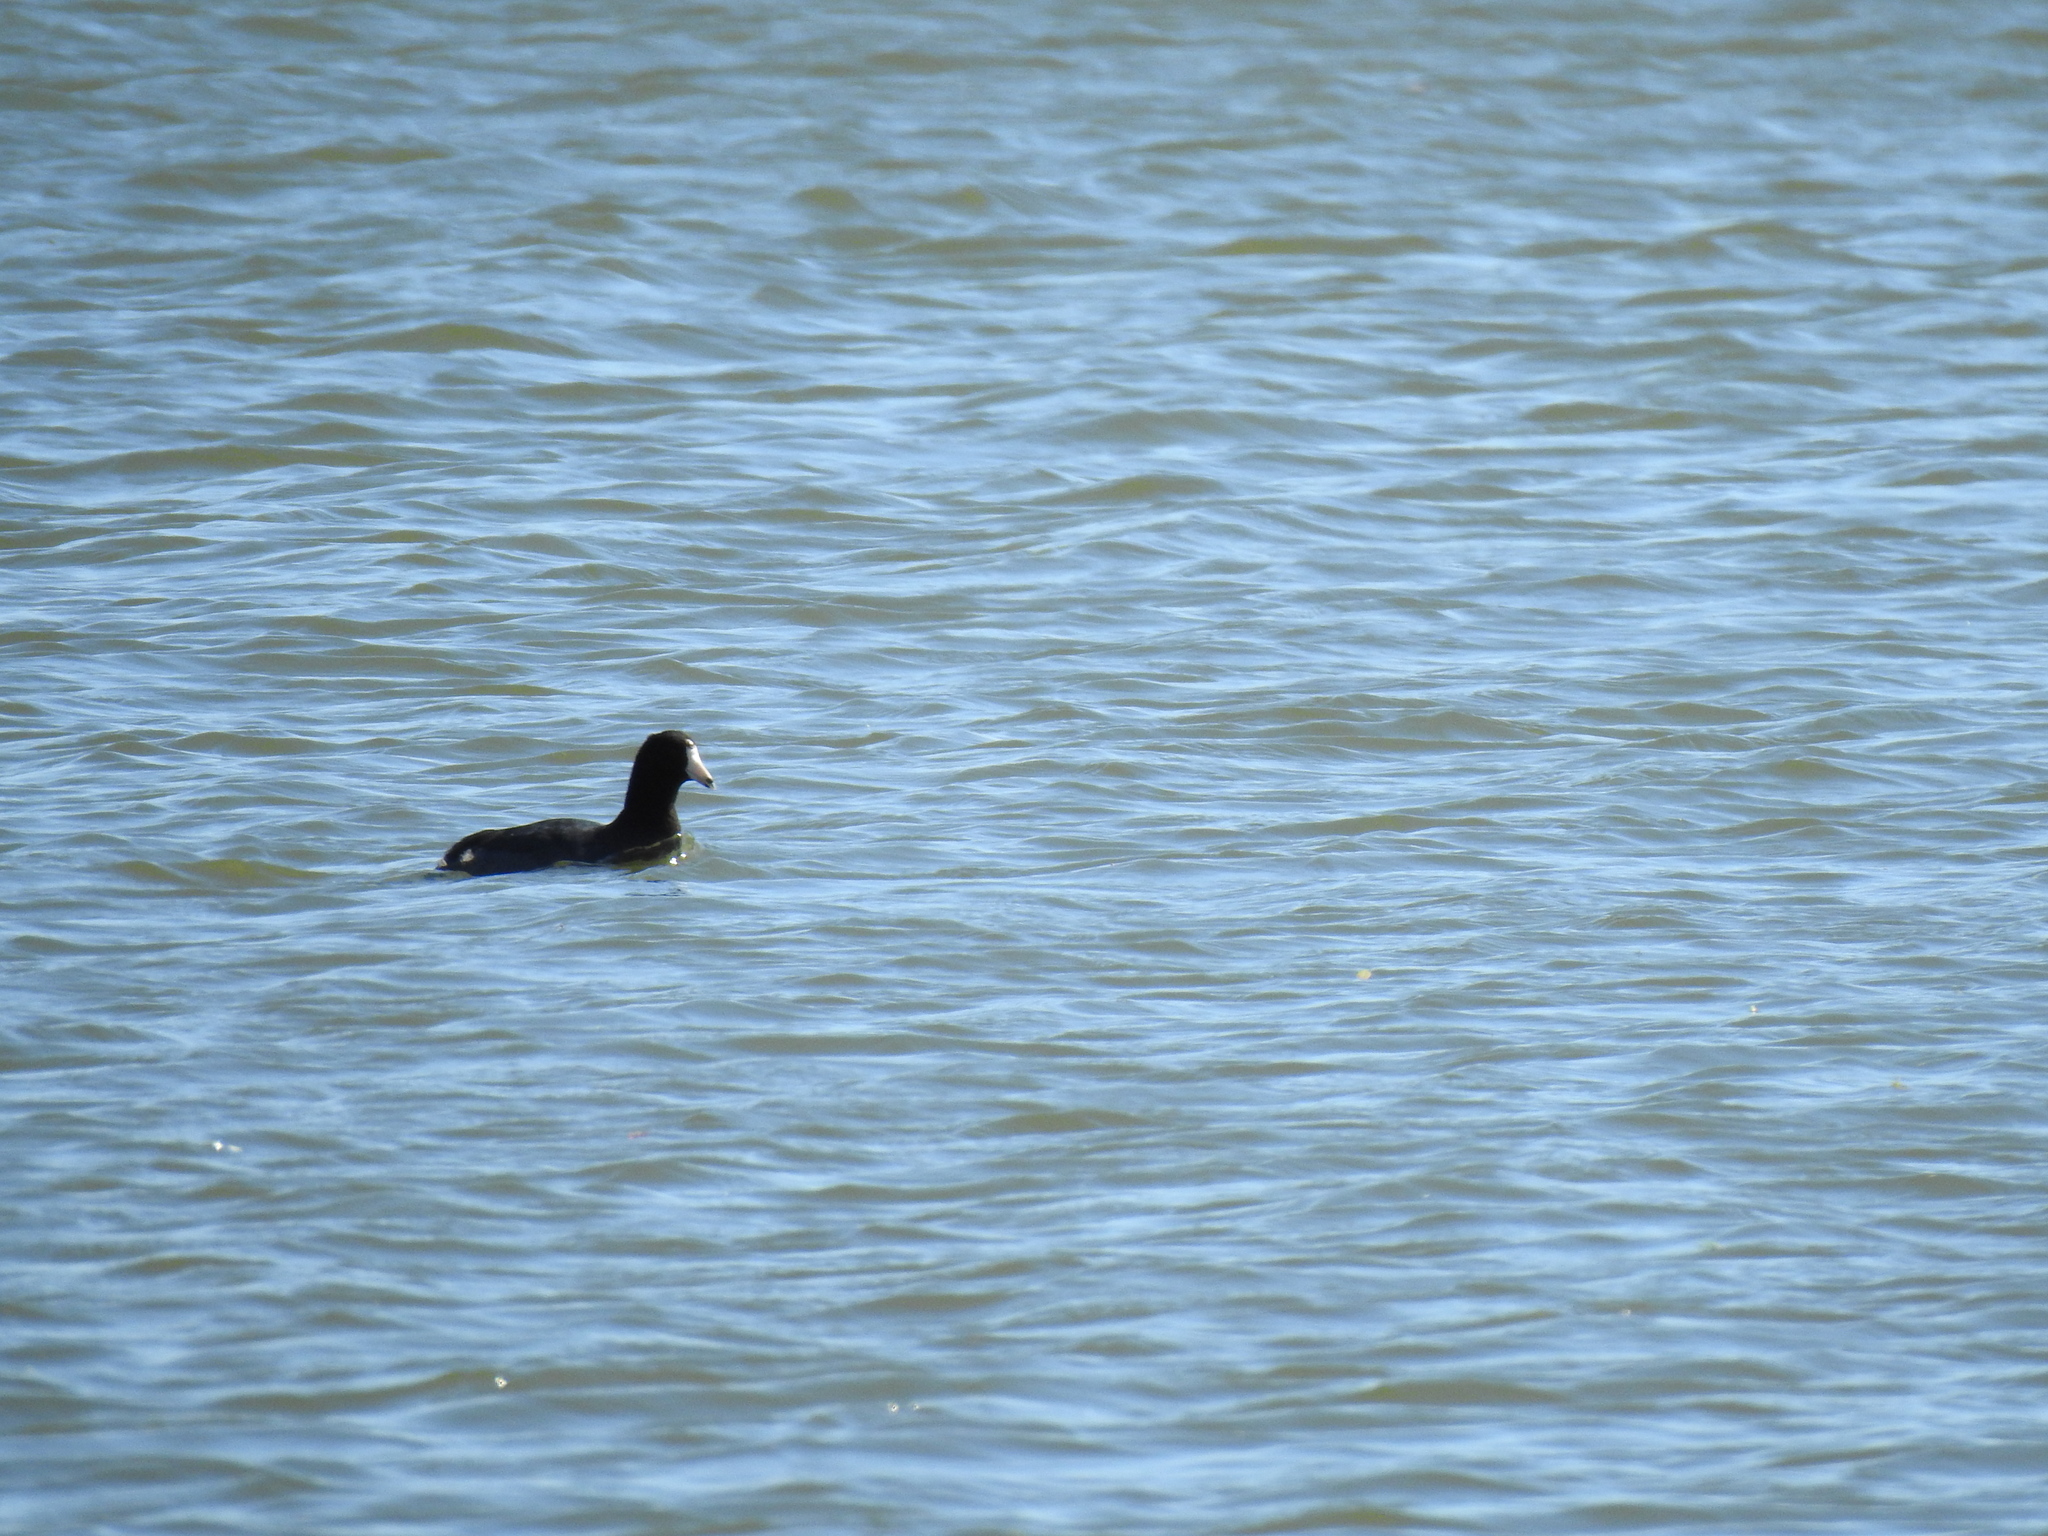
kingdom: Animalia
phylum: Chordata
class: Aves
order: Gruiformes
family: Rallidae
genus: Fulica
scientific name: Fulica americana
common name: American coot
